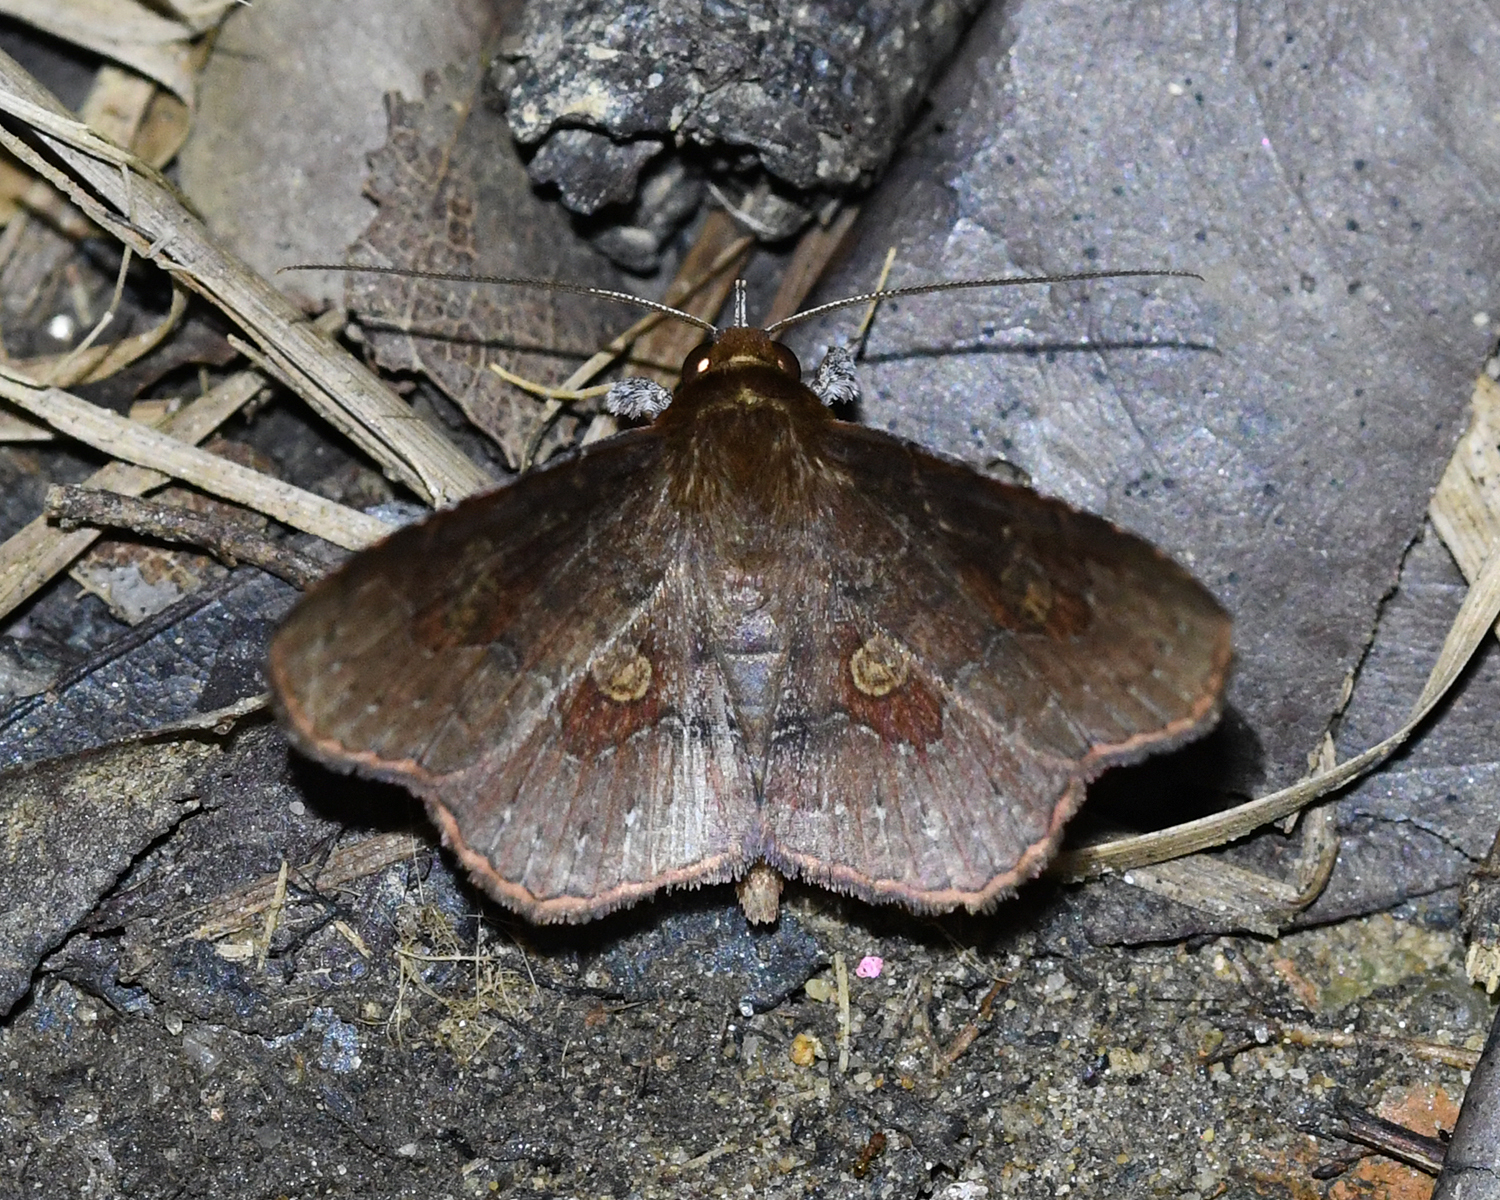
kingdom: Animalia
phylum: Arthropoda
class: Insecta
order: Lepidoptera
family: Erebidae
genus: Oxidercia
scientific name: Oxidercia toxea
